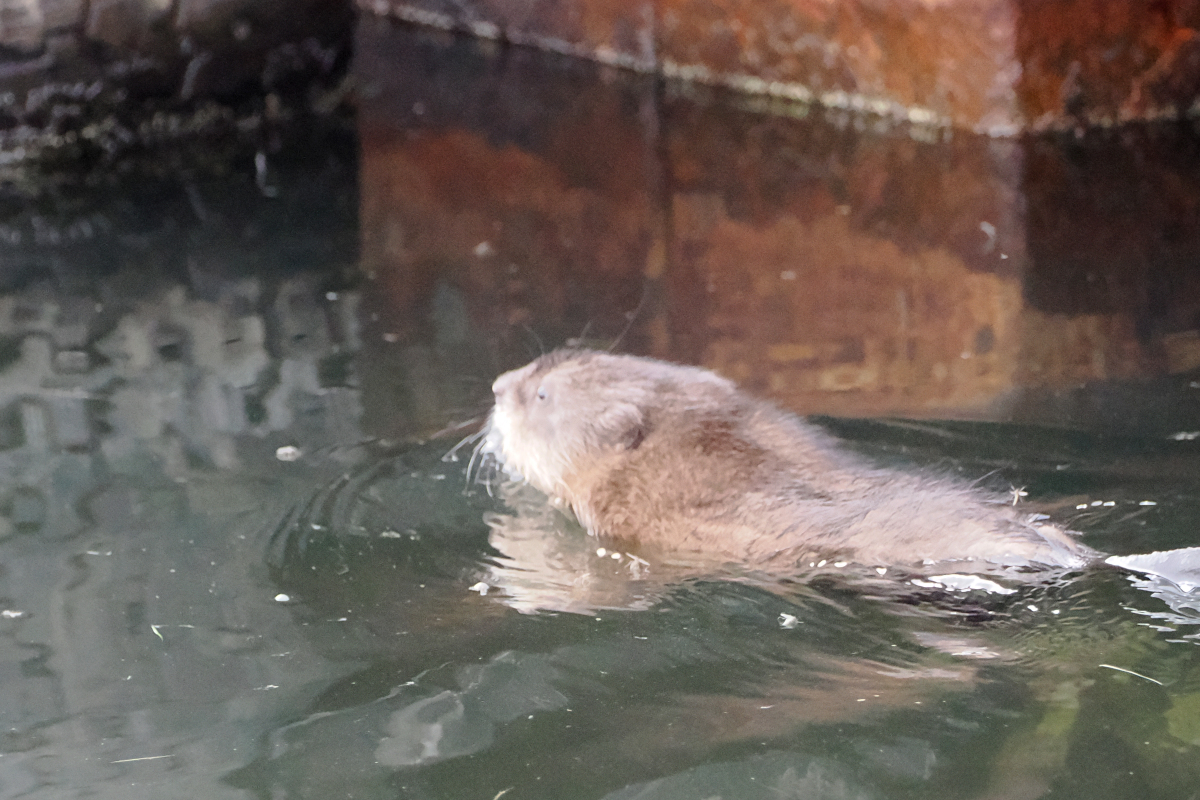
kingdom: Animalia
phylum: Chordata
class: Mammalia
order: Rodentia
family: Cricetidae
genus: Ondatra
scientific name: Ondatra zibethicus
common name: Muskrat
